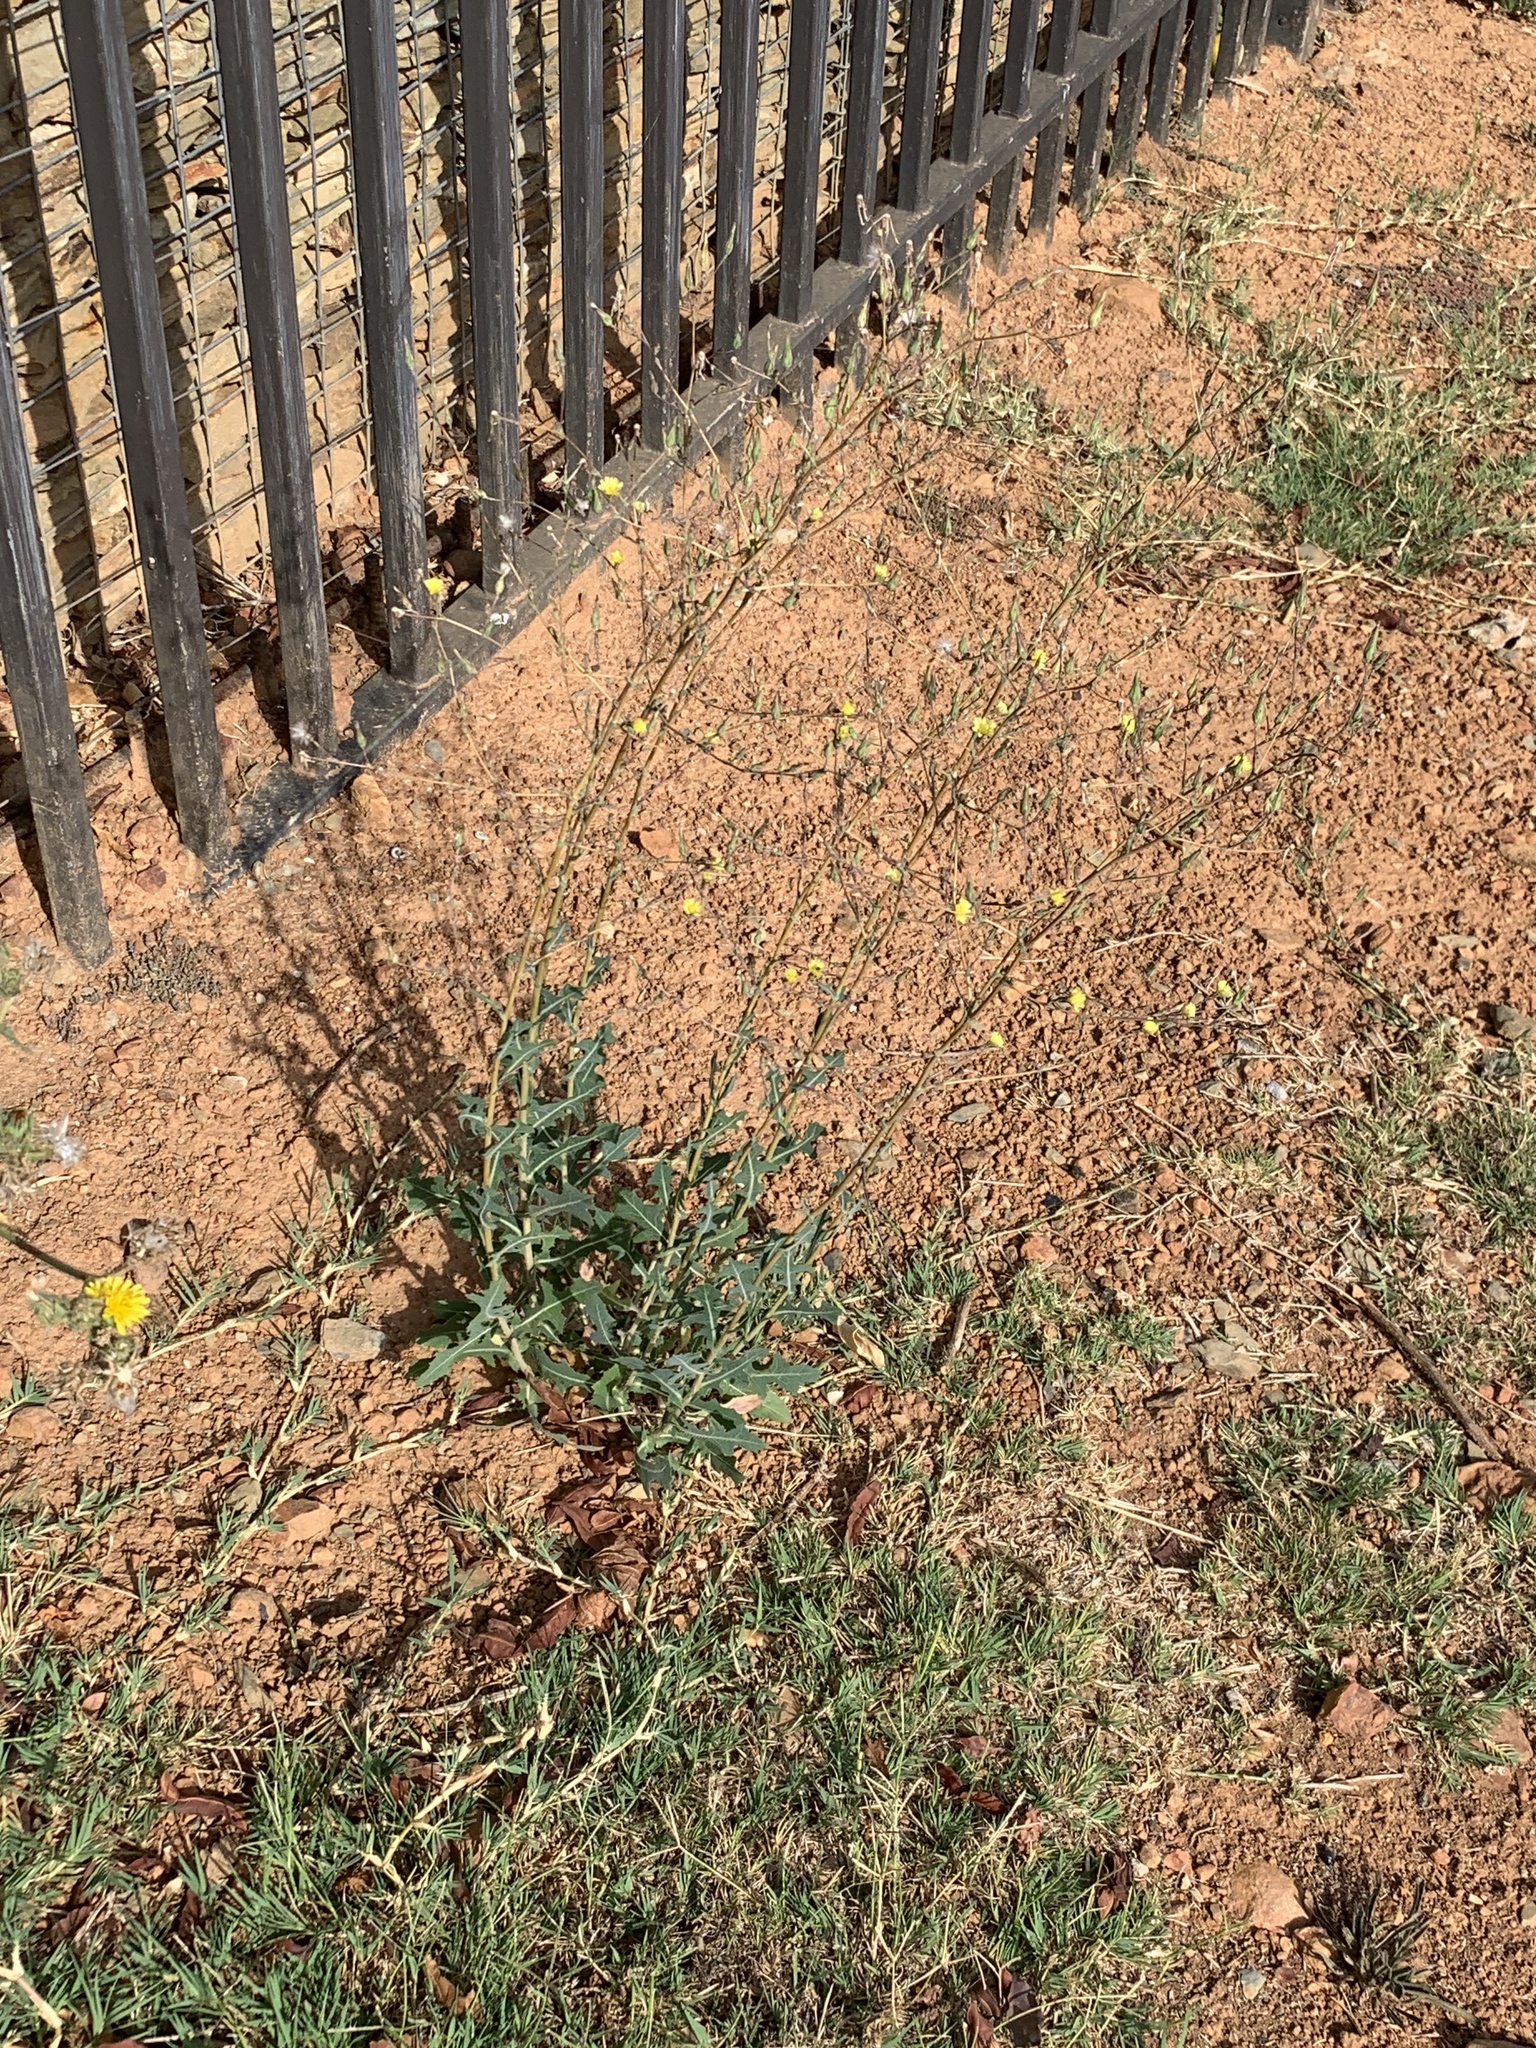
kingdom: Plantae
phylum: Tracheophyta
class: Magnoliopsida
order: Asterales
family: Asteraceae
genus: Lactuca
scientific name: Lactuca serriola
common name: Prickly lettuce
